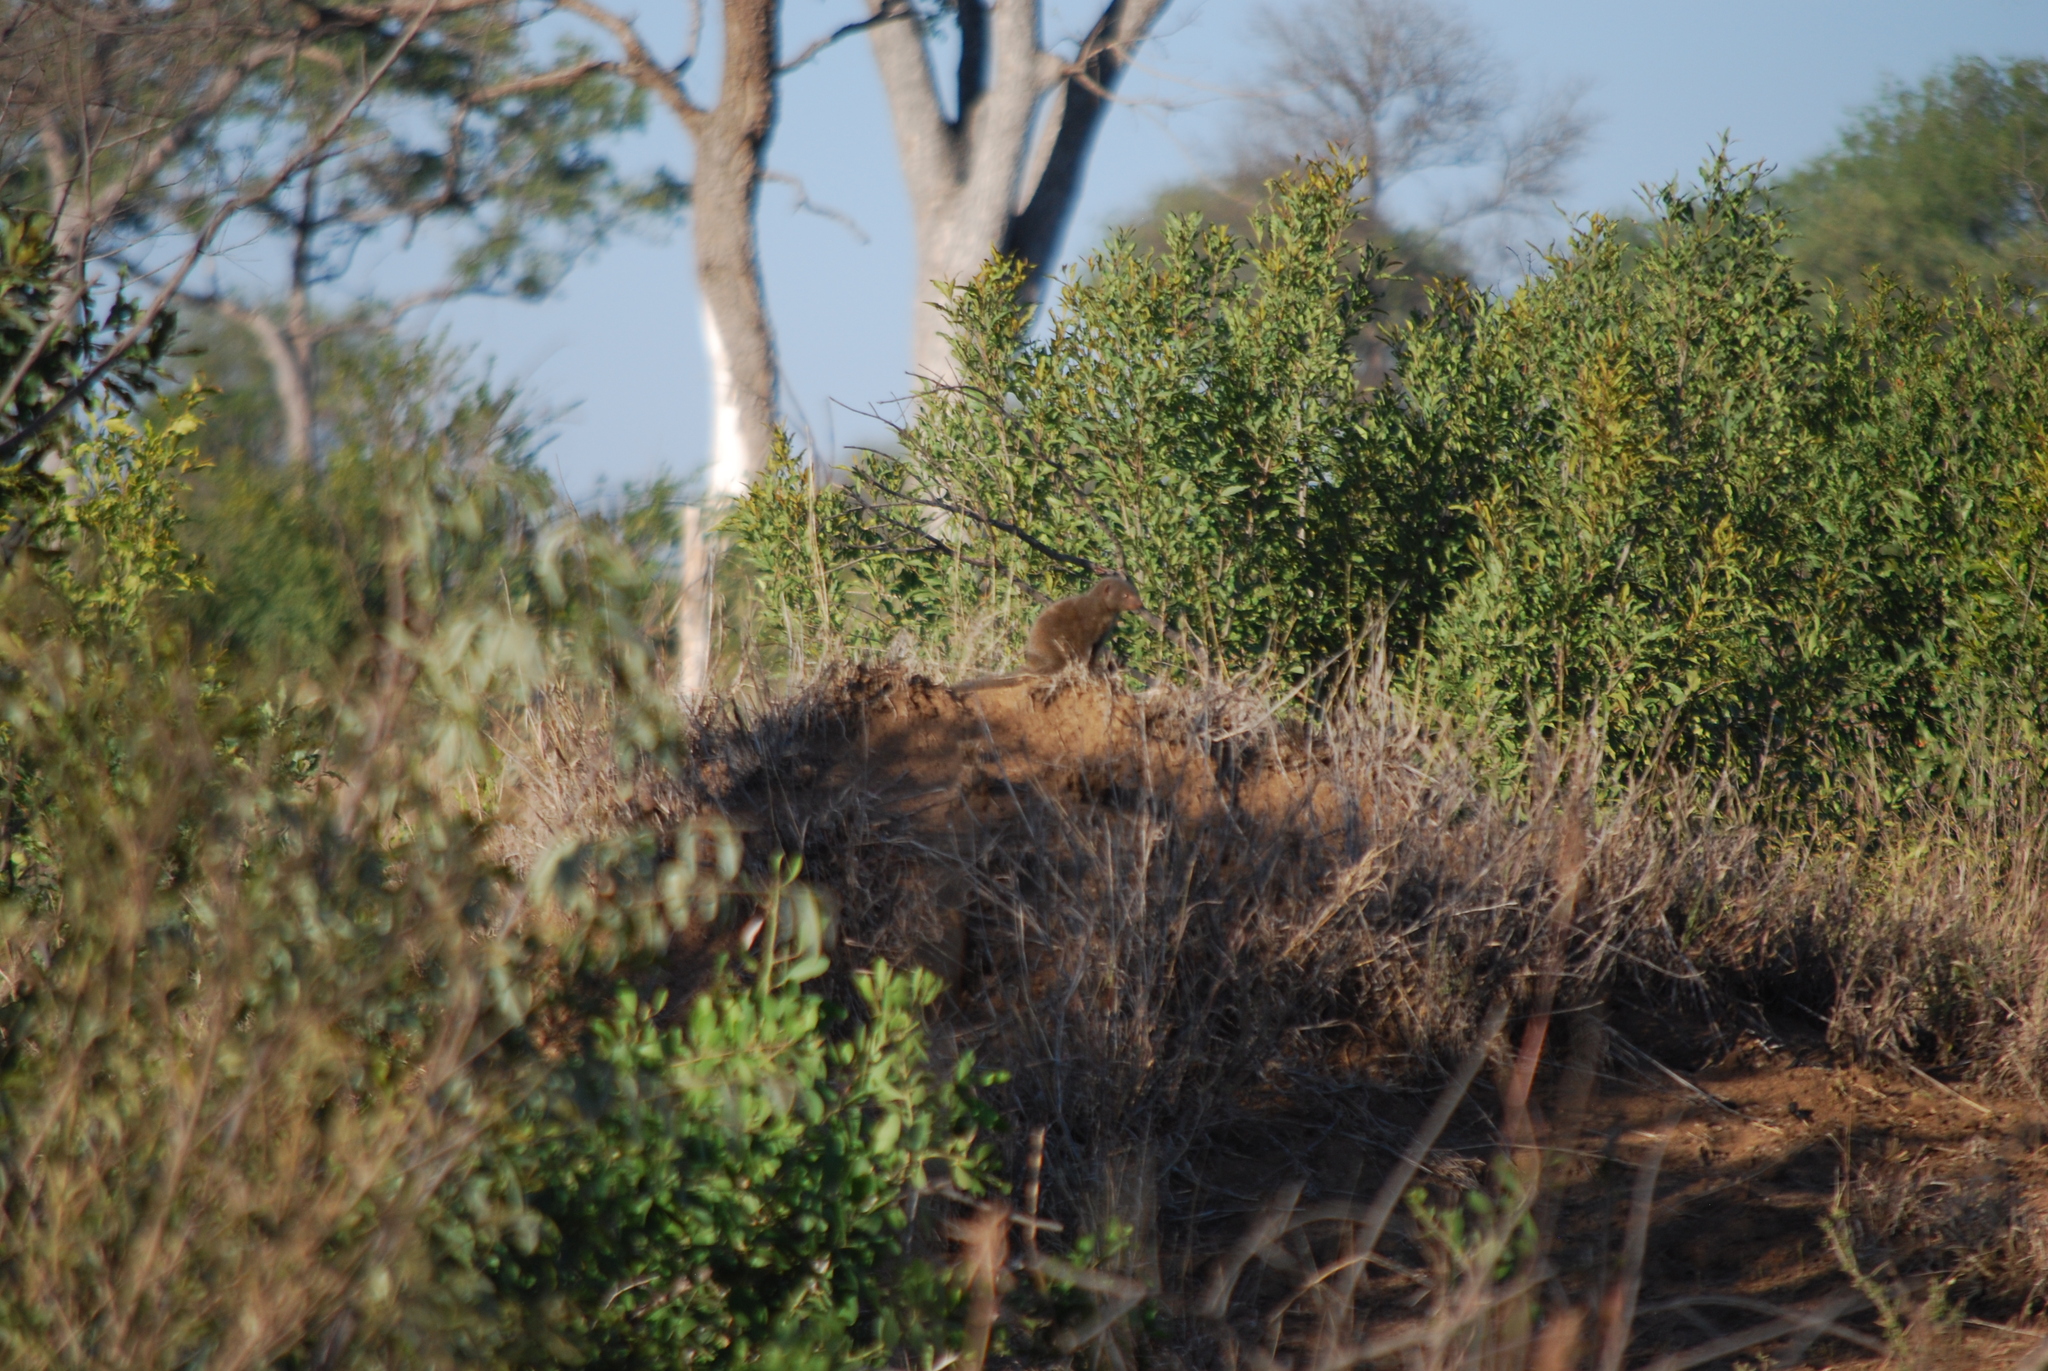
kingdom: Animalia
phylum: Chordata
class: Mammalia
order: Carnivora
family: Herpestidae
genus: Helogale
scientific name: Helogale parvula
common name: Common dwarf mongoose
